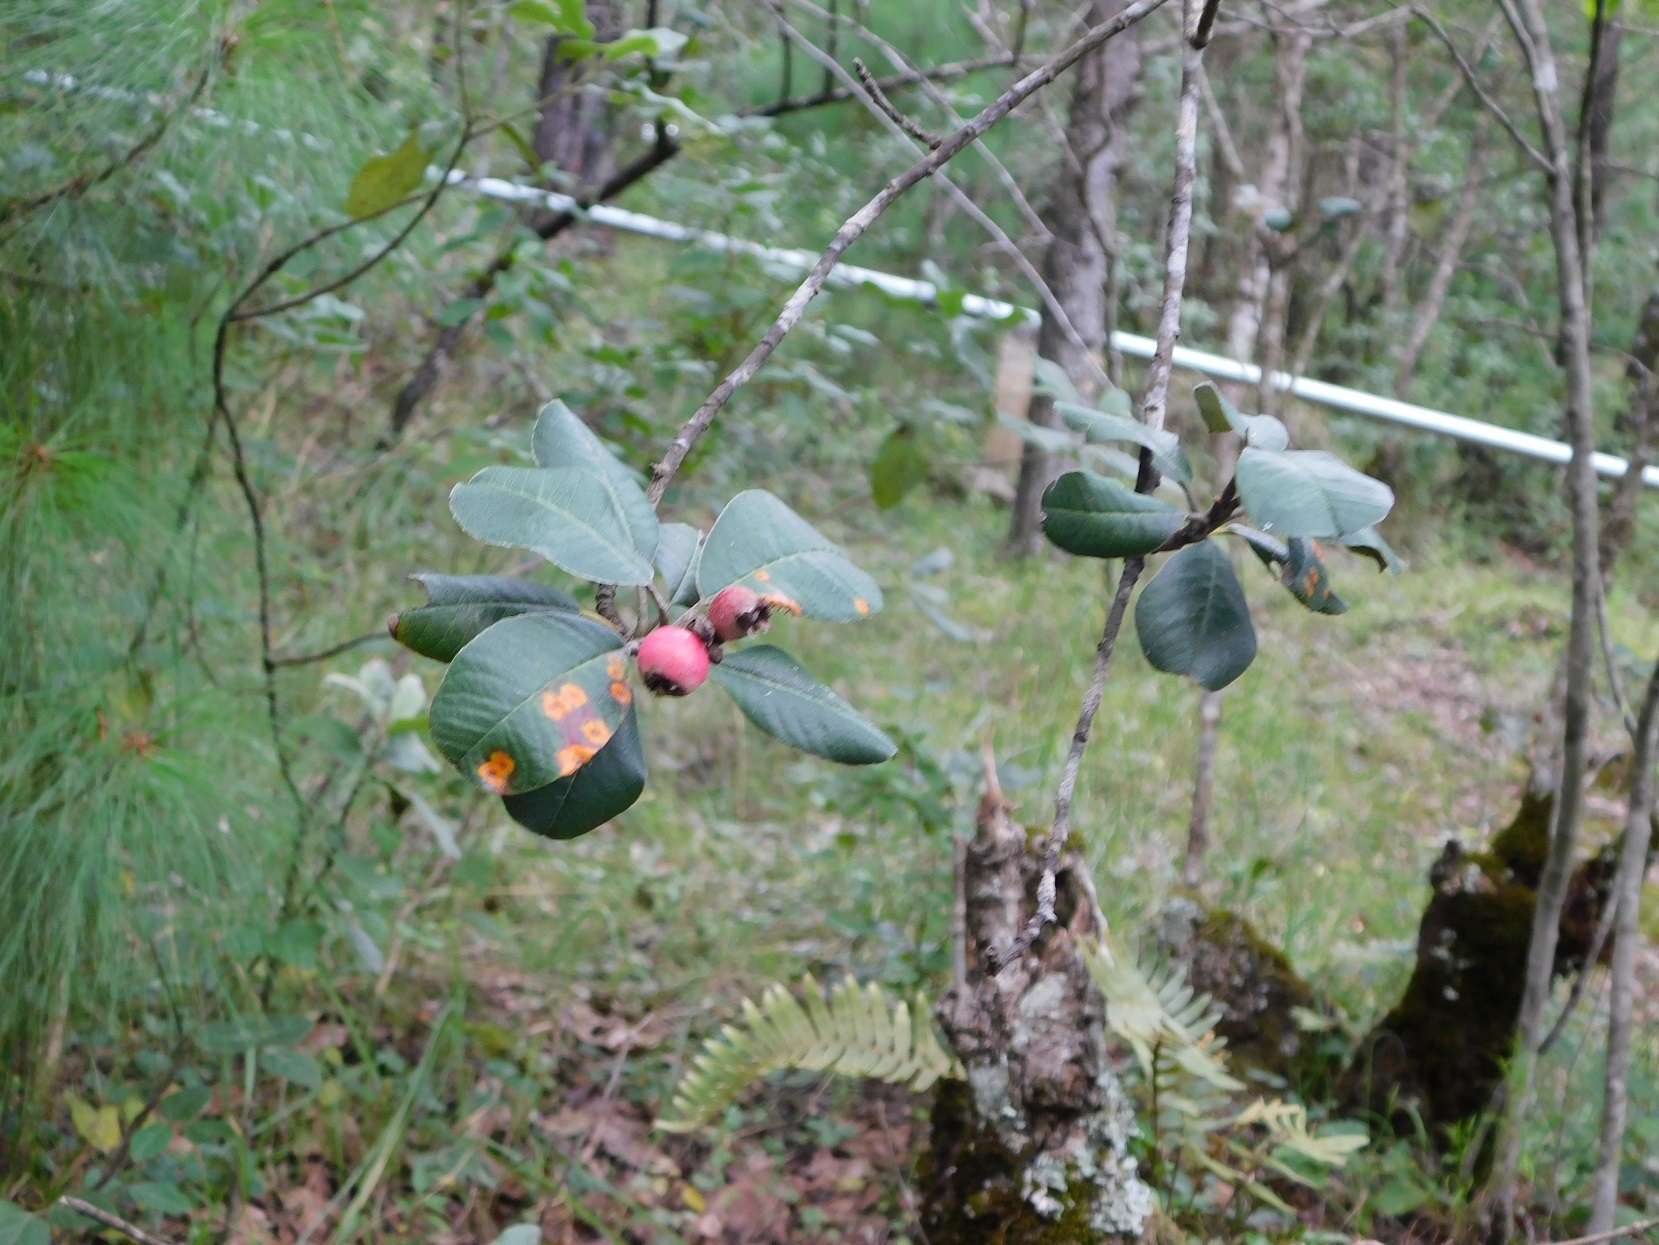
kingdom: Plantae
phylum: Tracheophyta
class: Magnoliopsida
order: Rosales
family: Rosaceae
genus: Malacomeles
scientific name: Malacomeles nervosa
